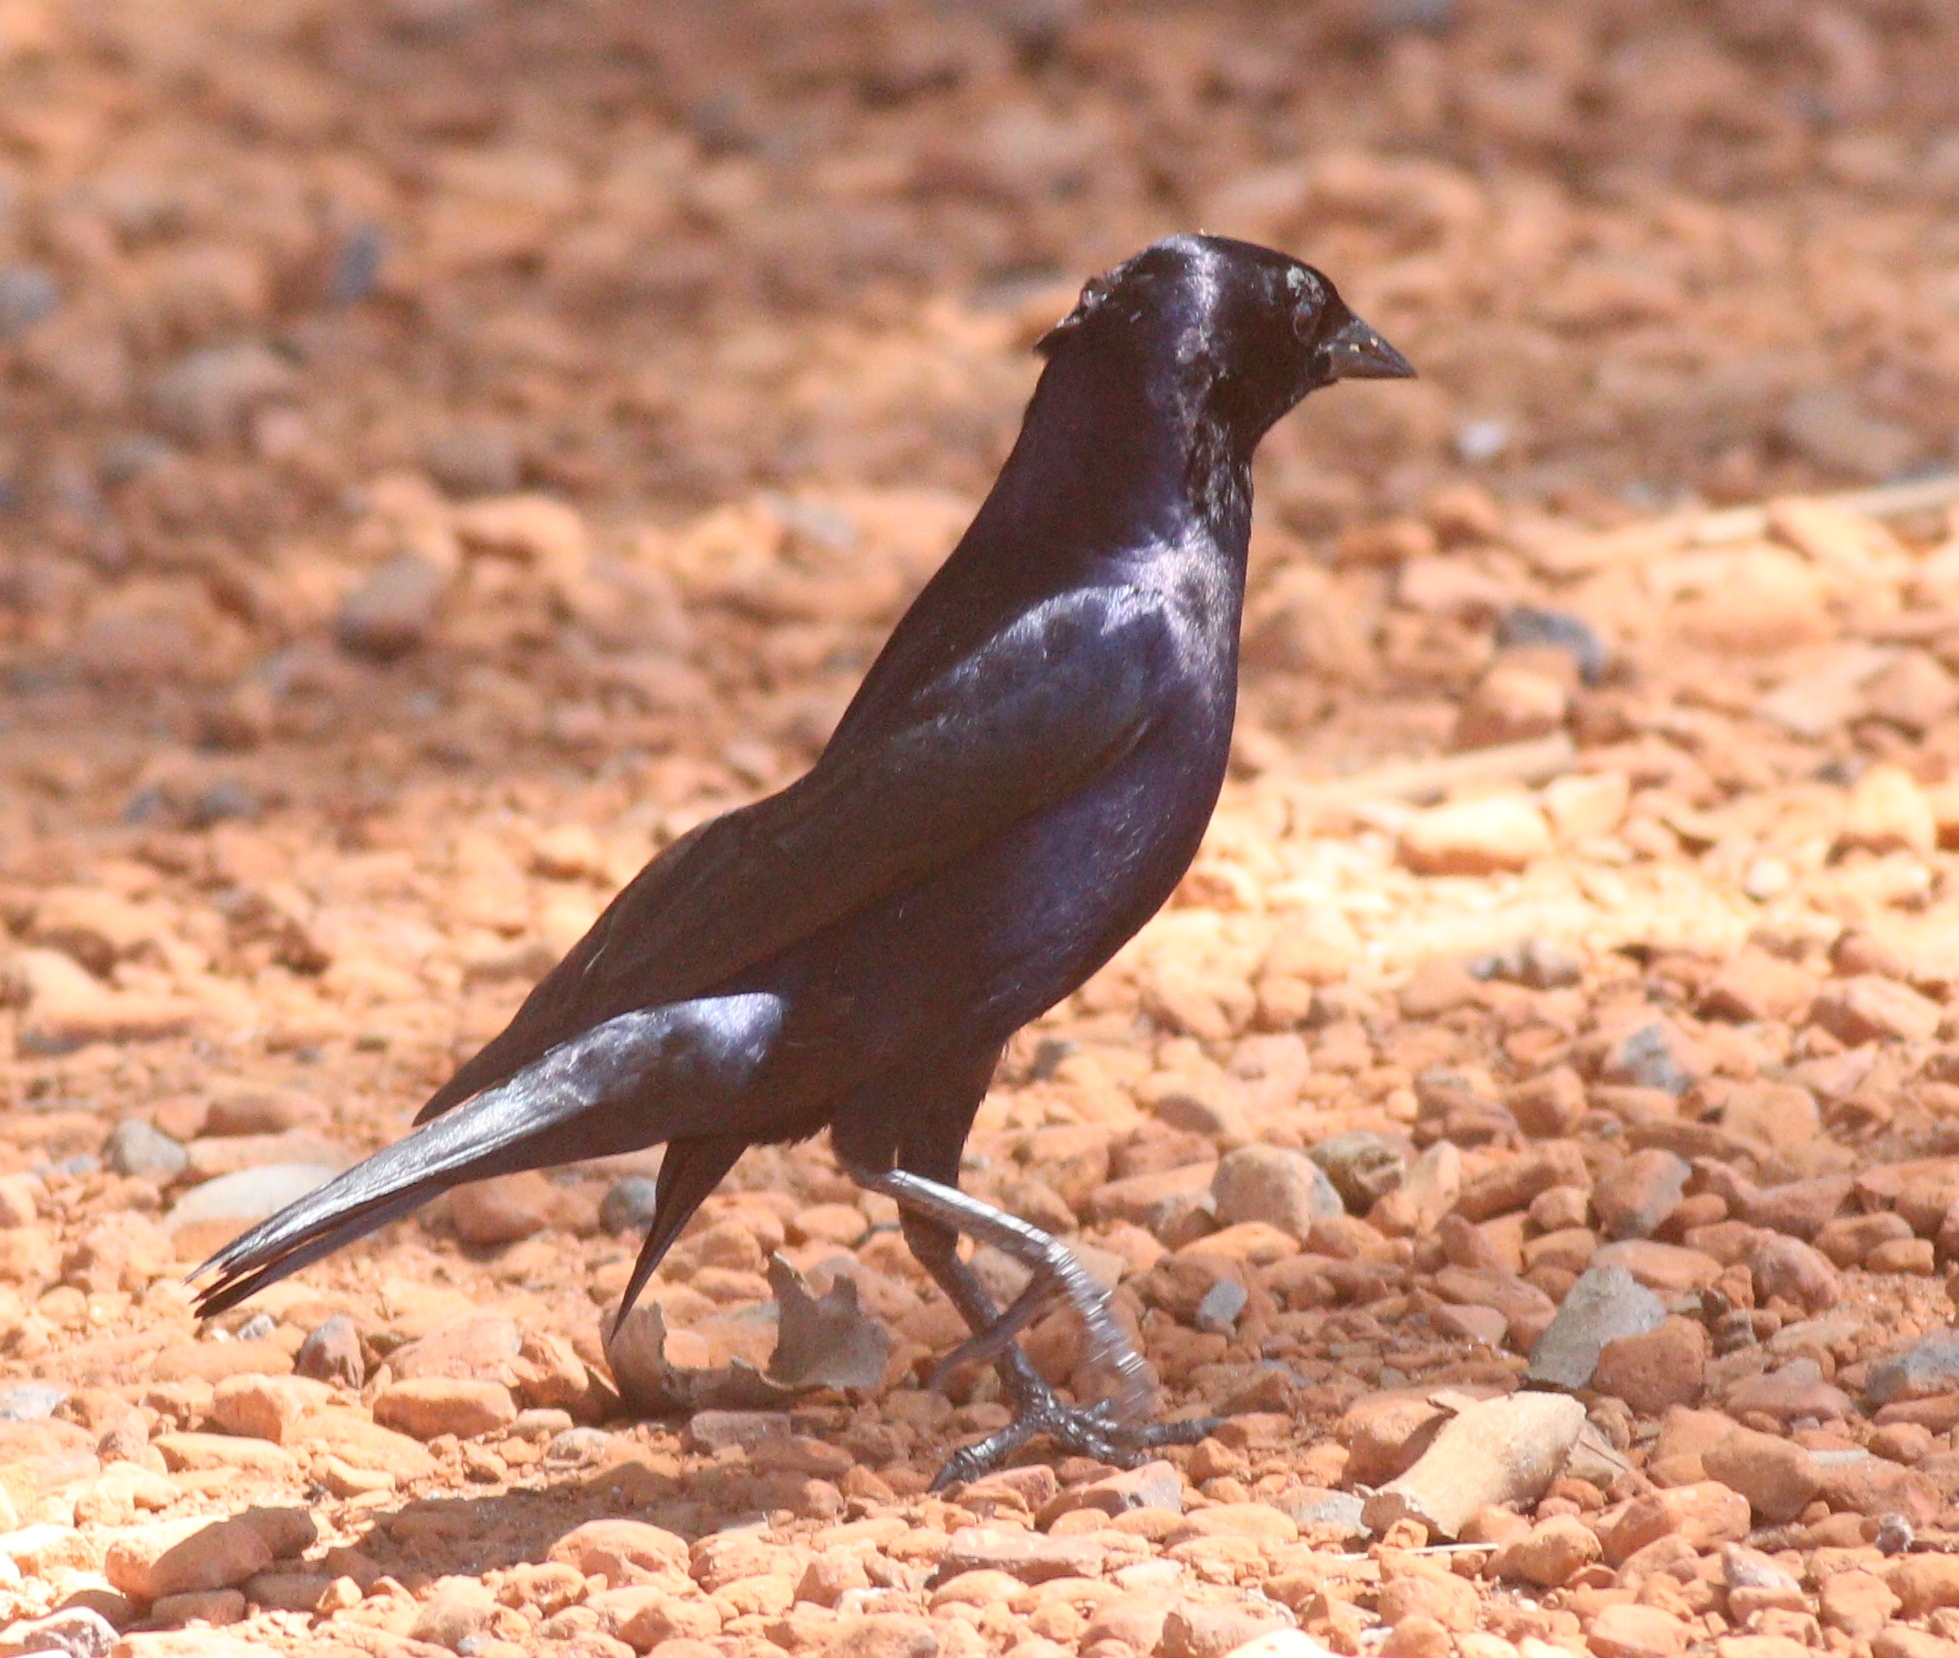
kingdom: Animalia
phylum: Chordata
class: Aves
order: Passeriformes
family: Icteridae
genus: Molothrus
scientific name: Molothrus bonariensis
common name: Shiny cowbird
